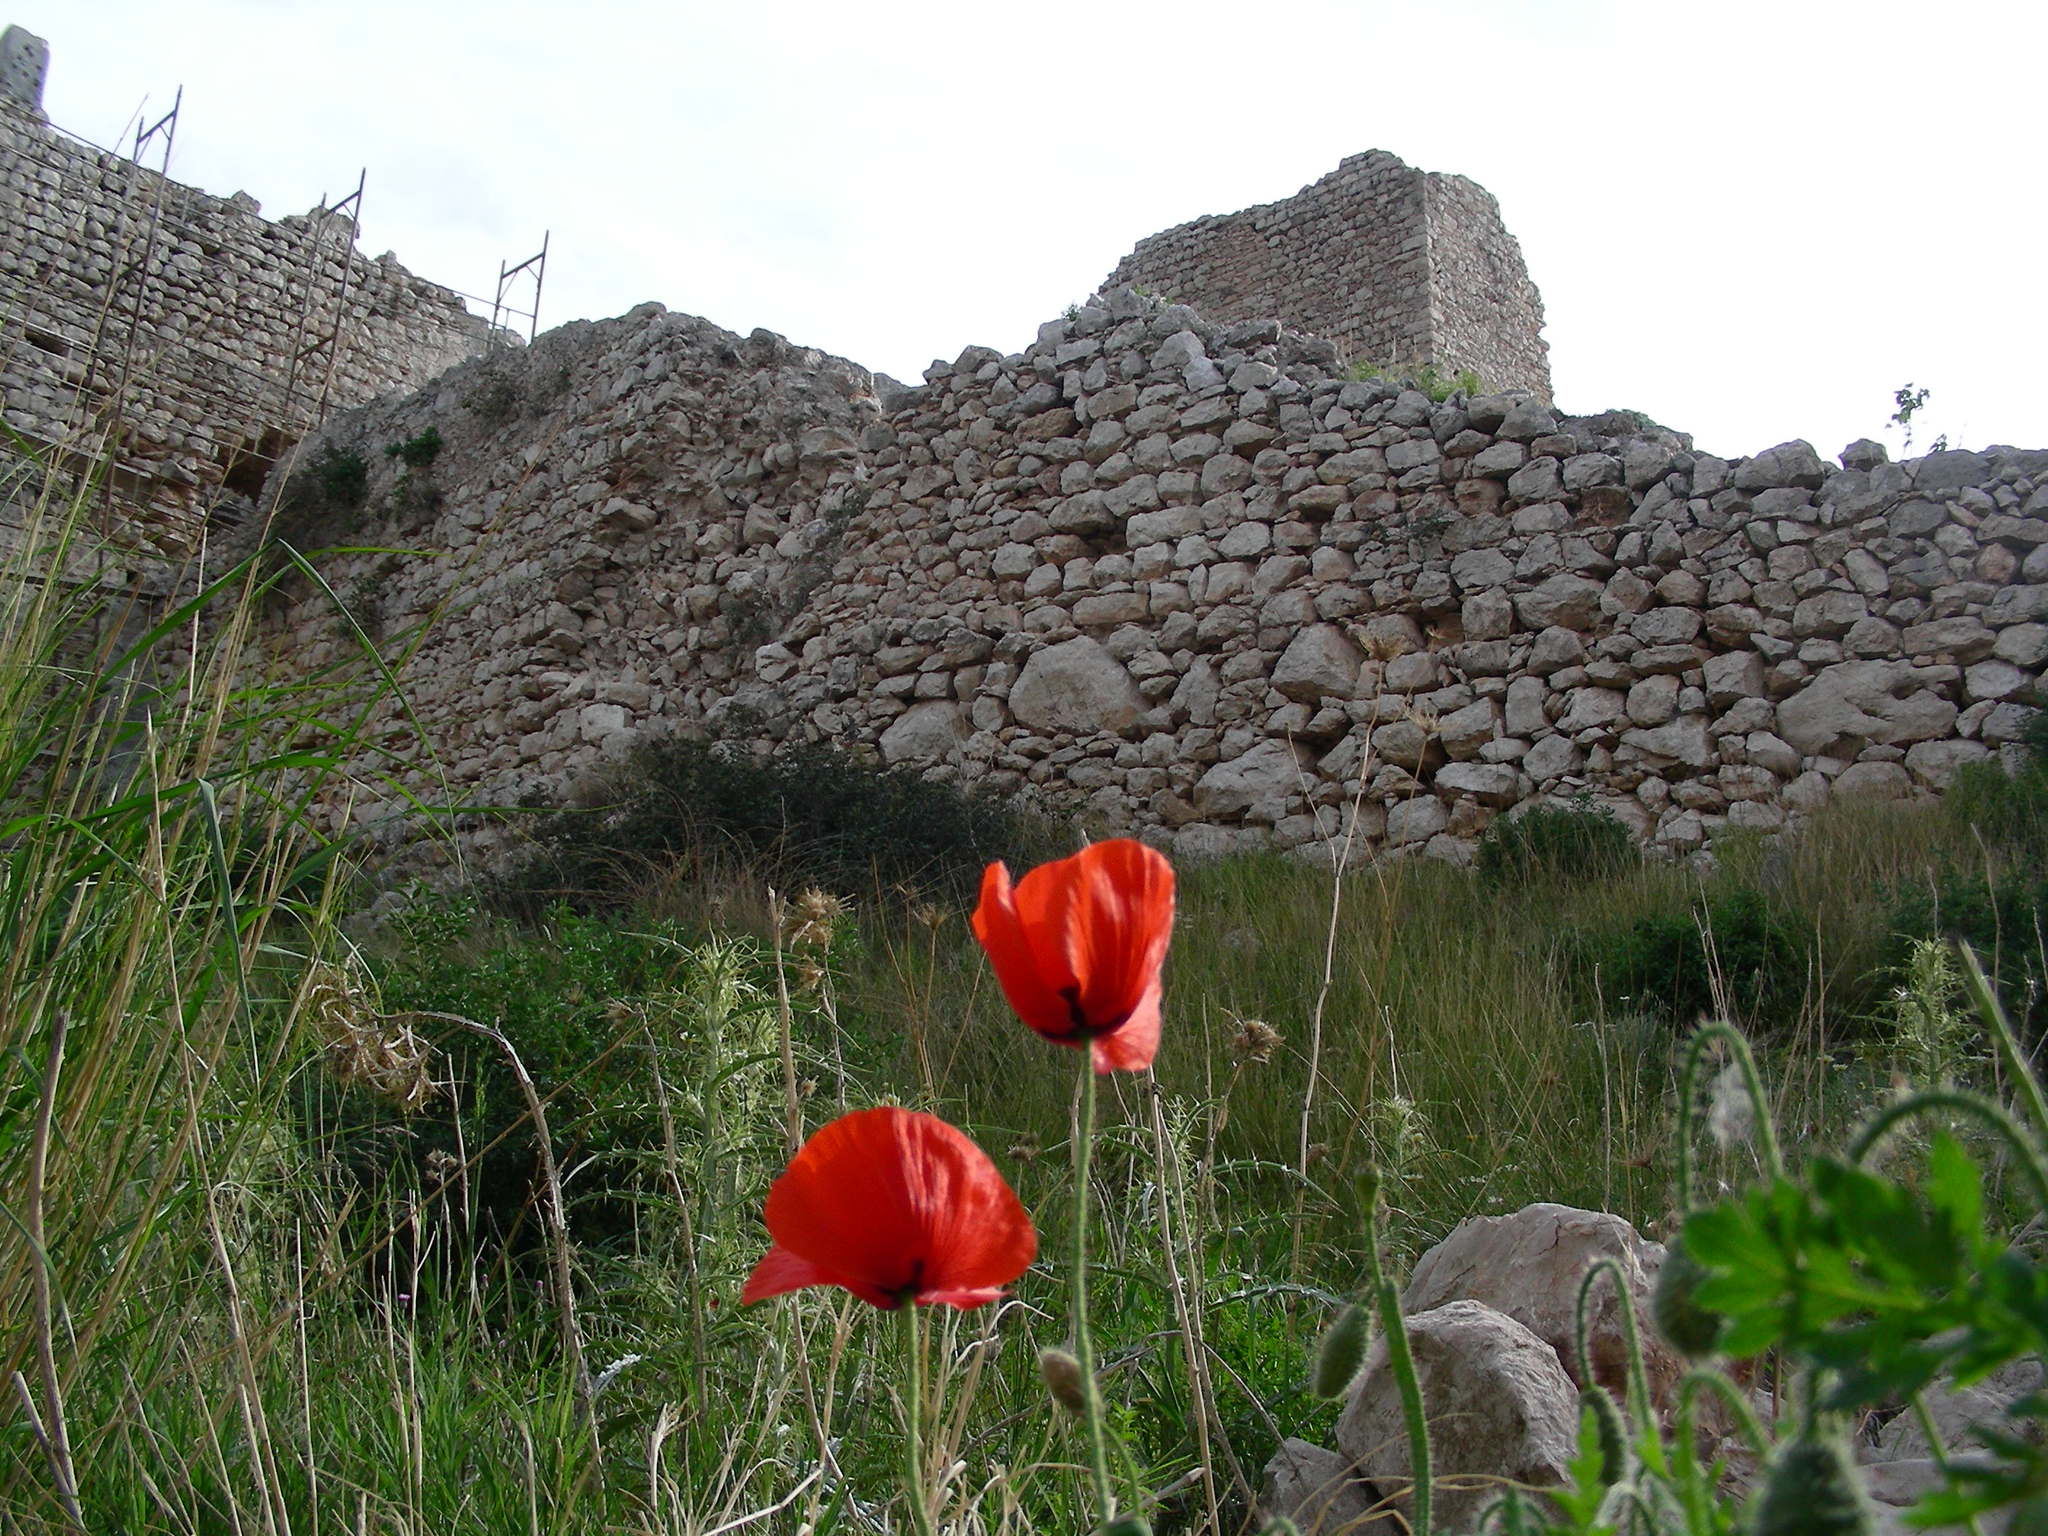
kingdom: Plantae
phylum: Tracheophyta
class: Magnoliopsida
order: Ranunculales
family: Papaveraceae
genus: Papaver
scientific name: Papaver rhoeas
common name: Corn poppy
